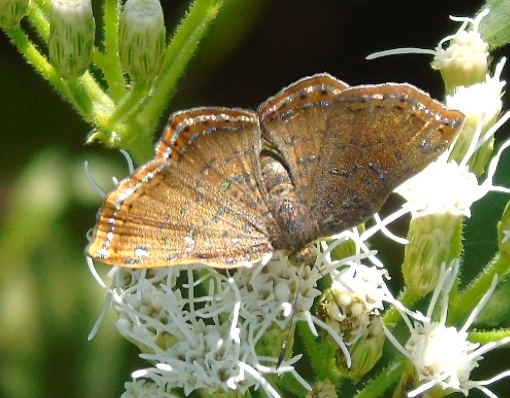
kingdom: Animalia
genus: Caria
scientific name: Caria ino
